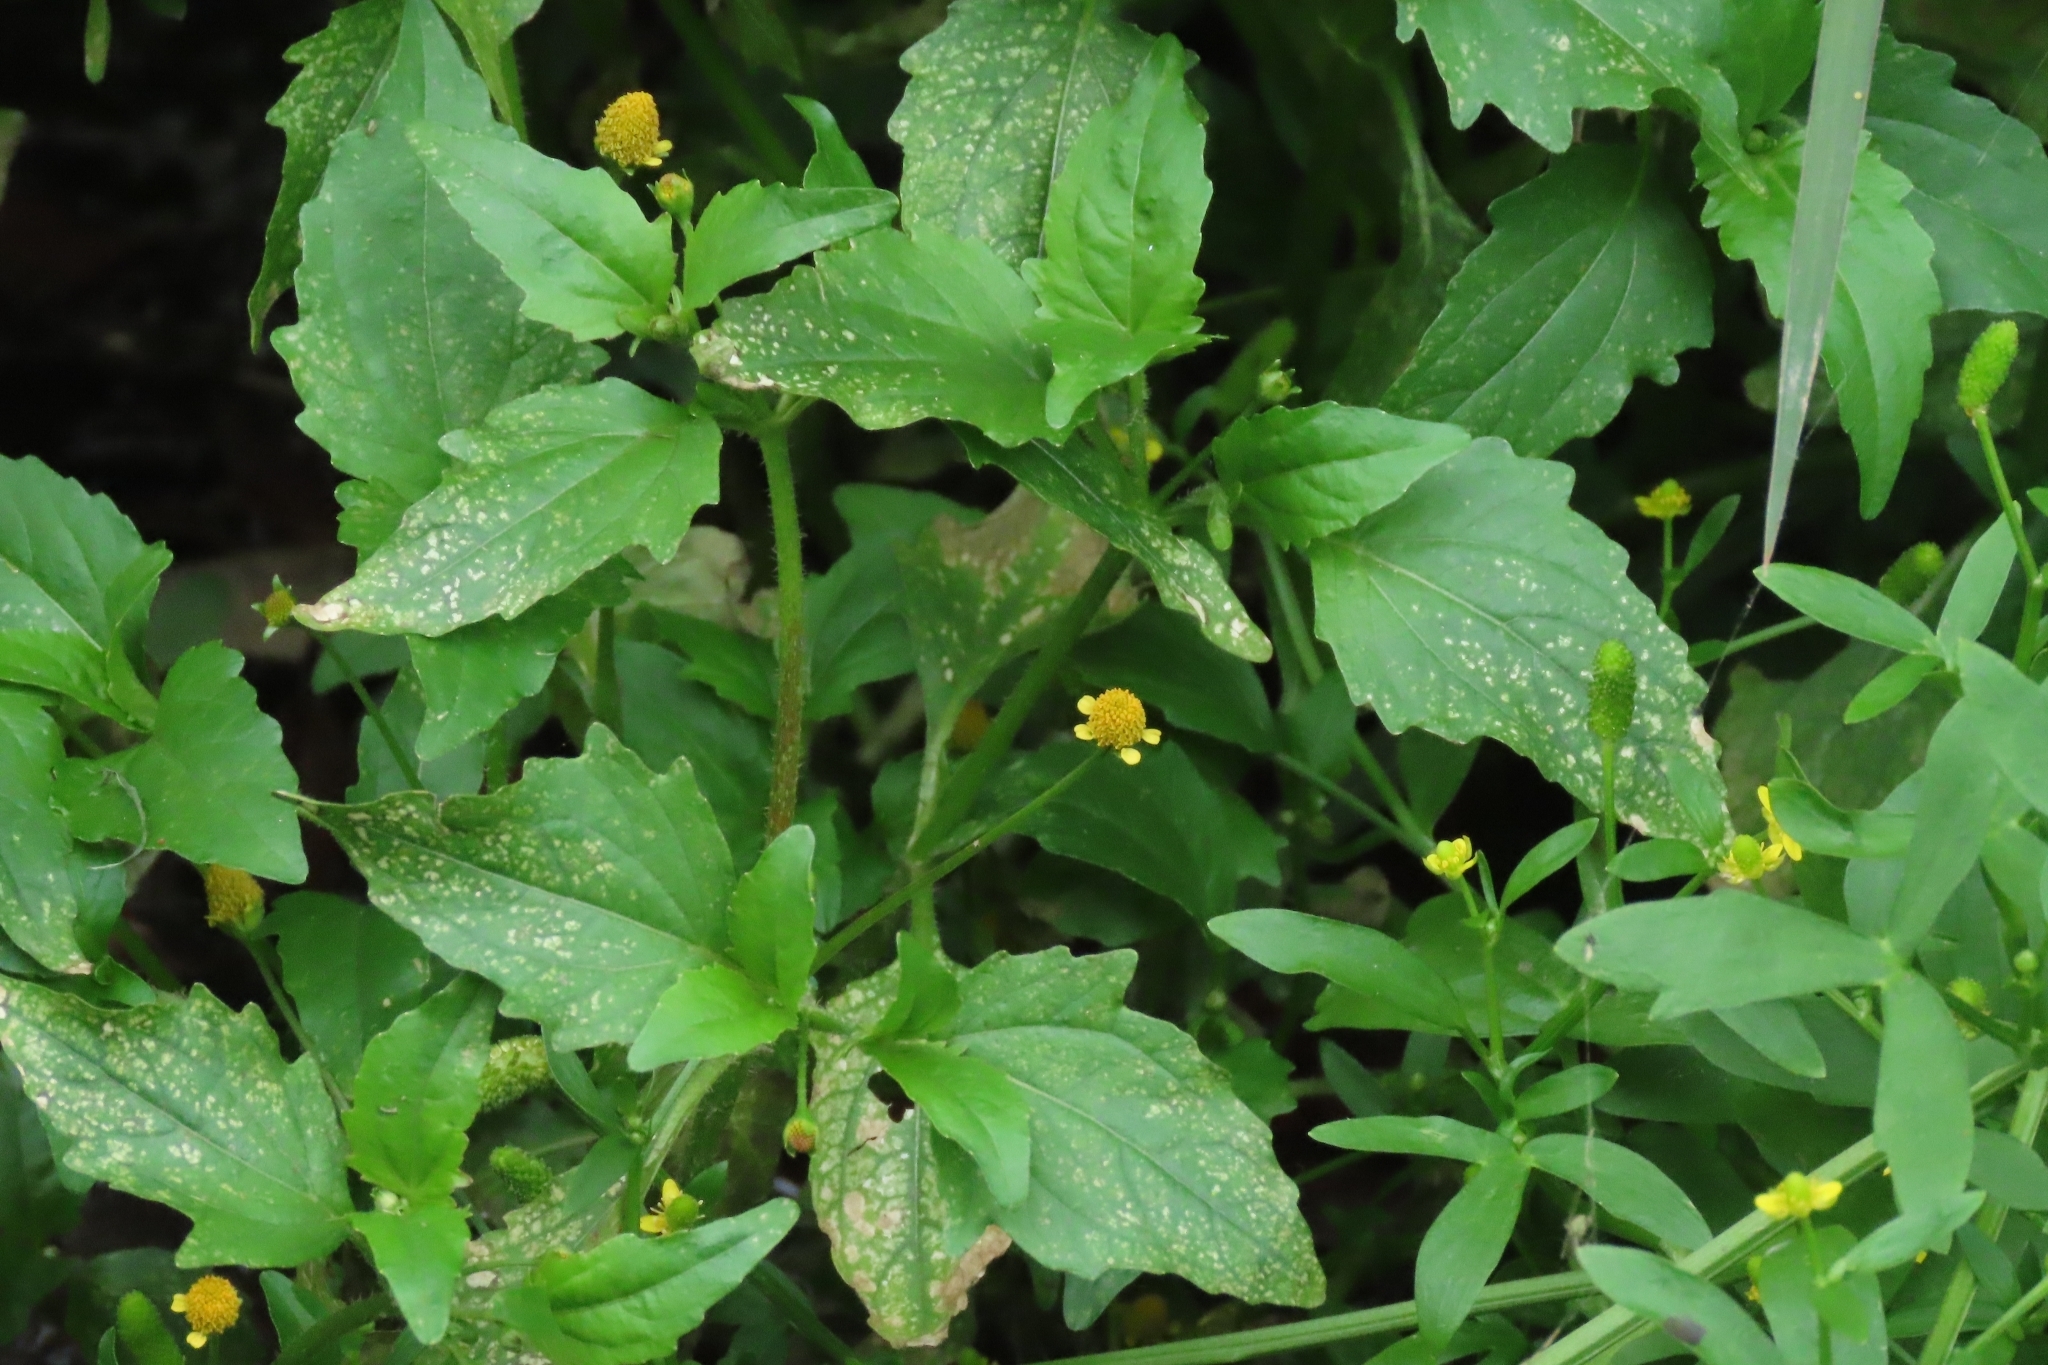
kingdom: Plantae
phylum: Tracheophyta
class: Magnoliopsida
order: Asterales
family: Asteraceae
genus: Acmella
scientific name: Acmella uliginosa
